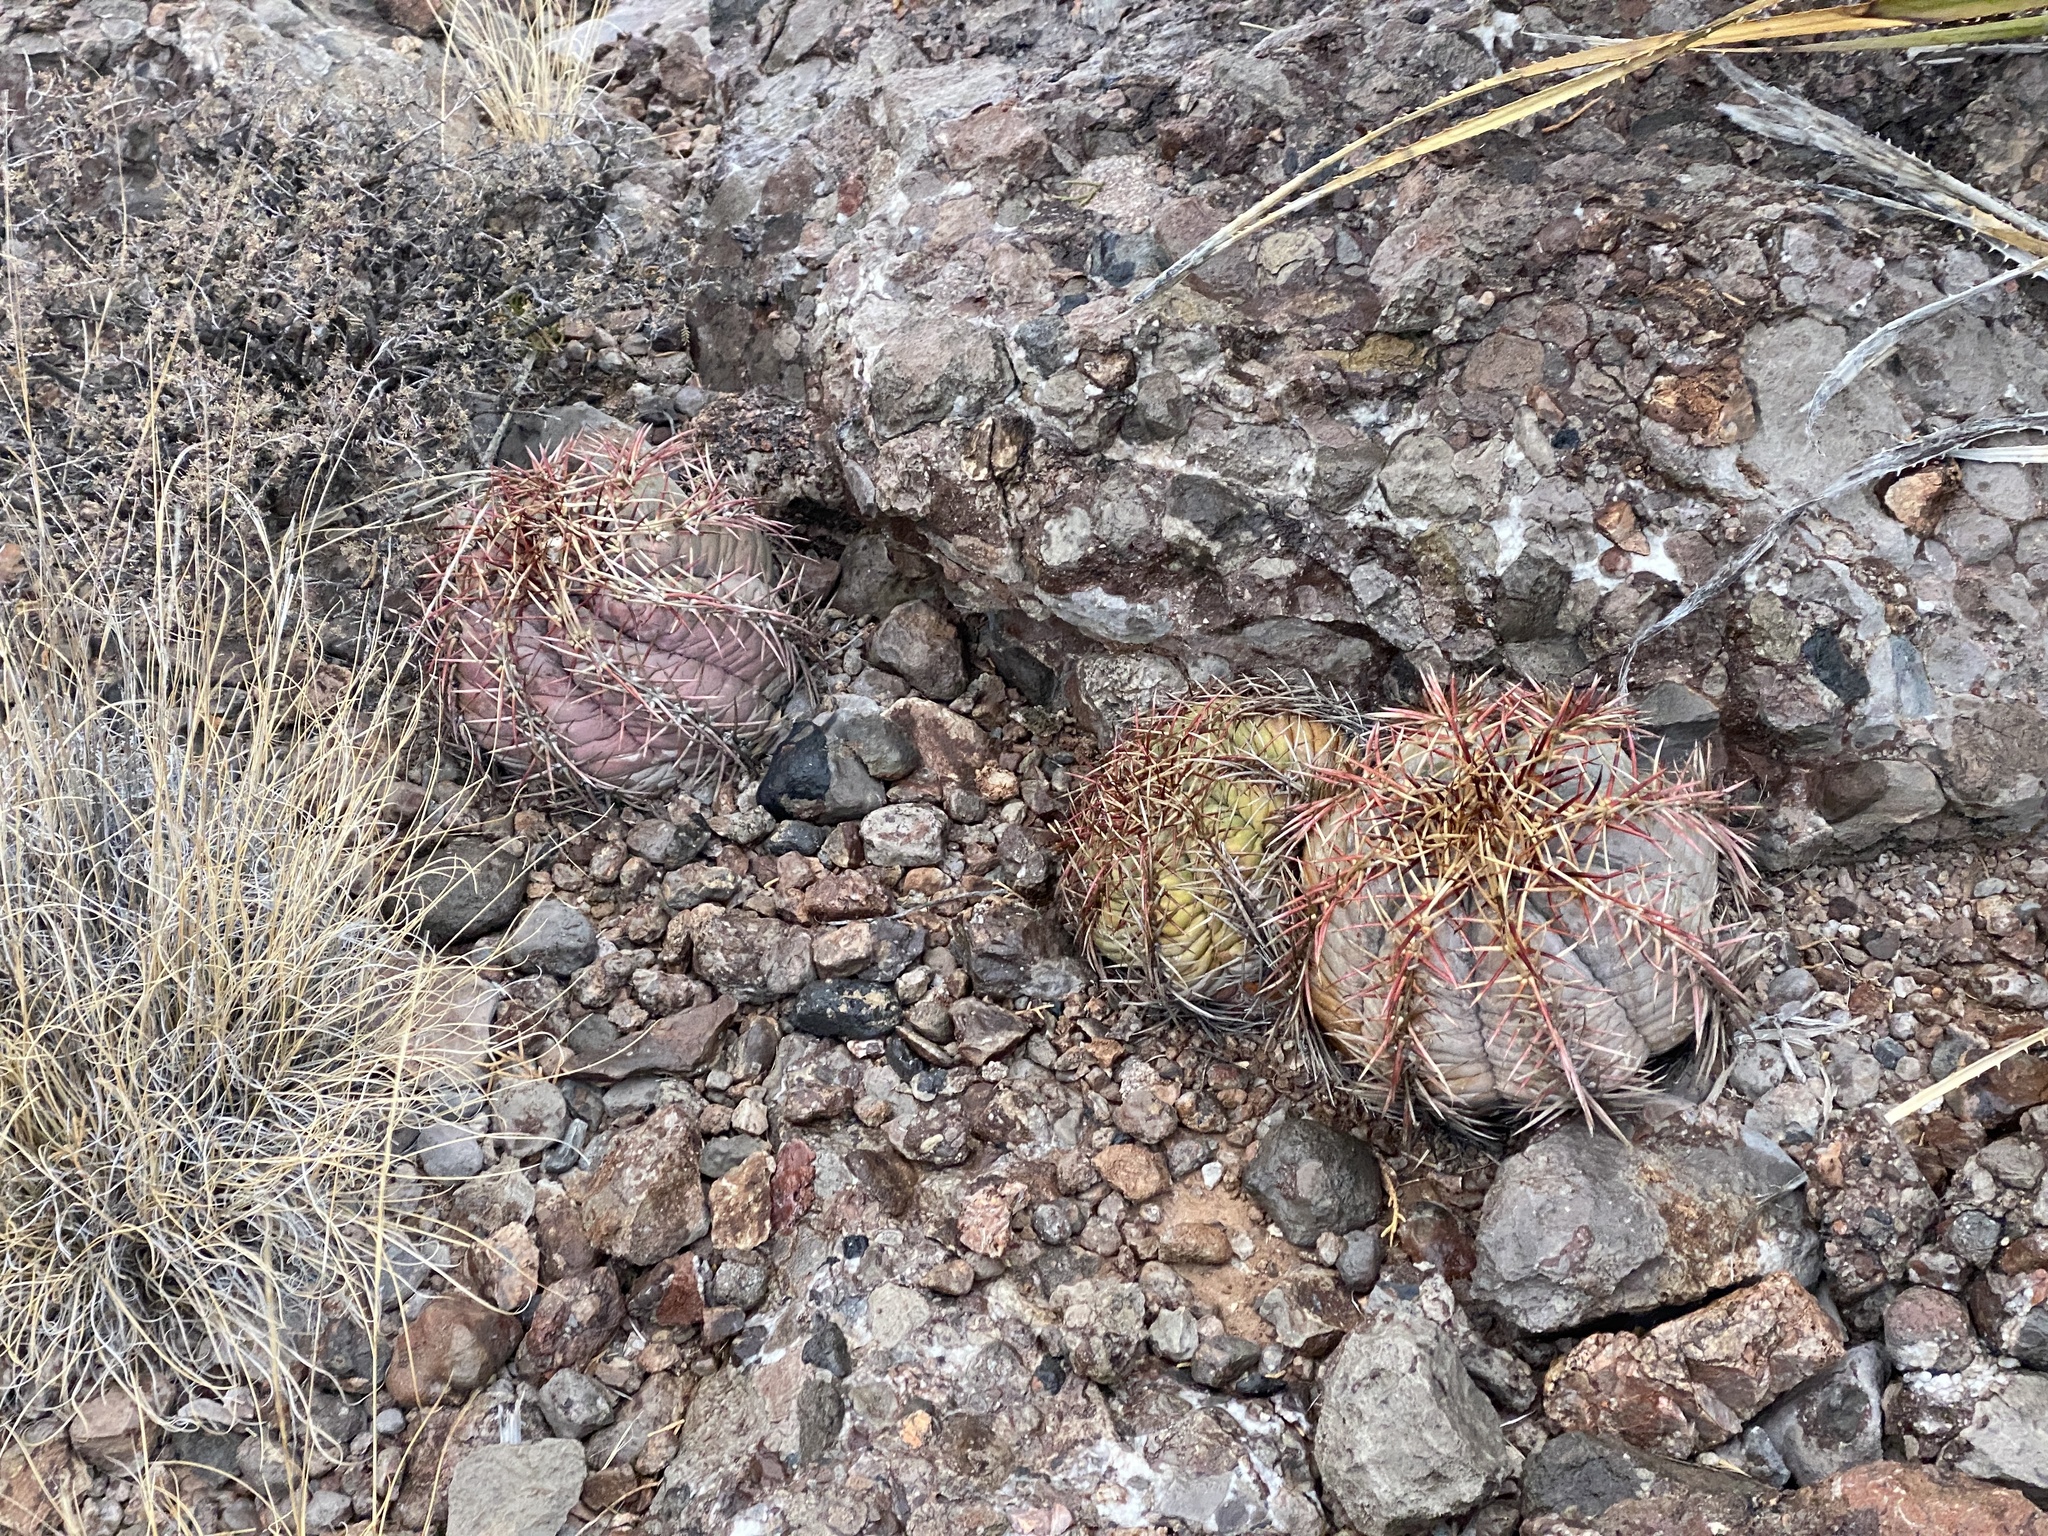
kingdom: Plantae
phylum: Tracheophyta
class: Magnoliopsida
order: Caryophyllales
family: Cactaceae
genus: Echinocactus
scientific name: Echinocactus horizonthalonius
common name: Devilshead
